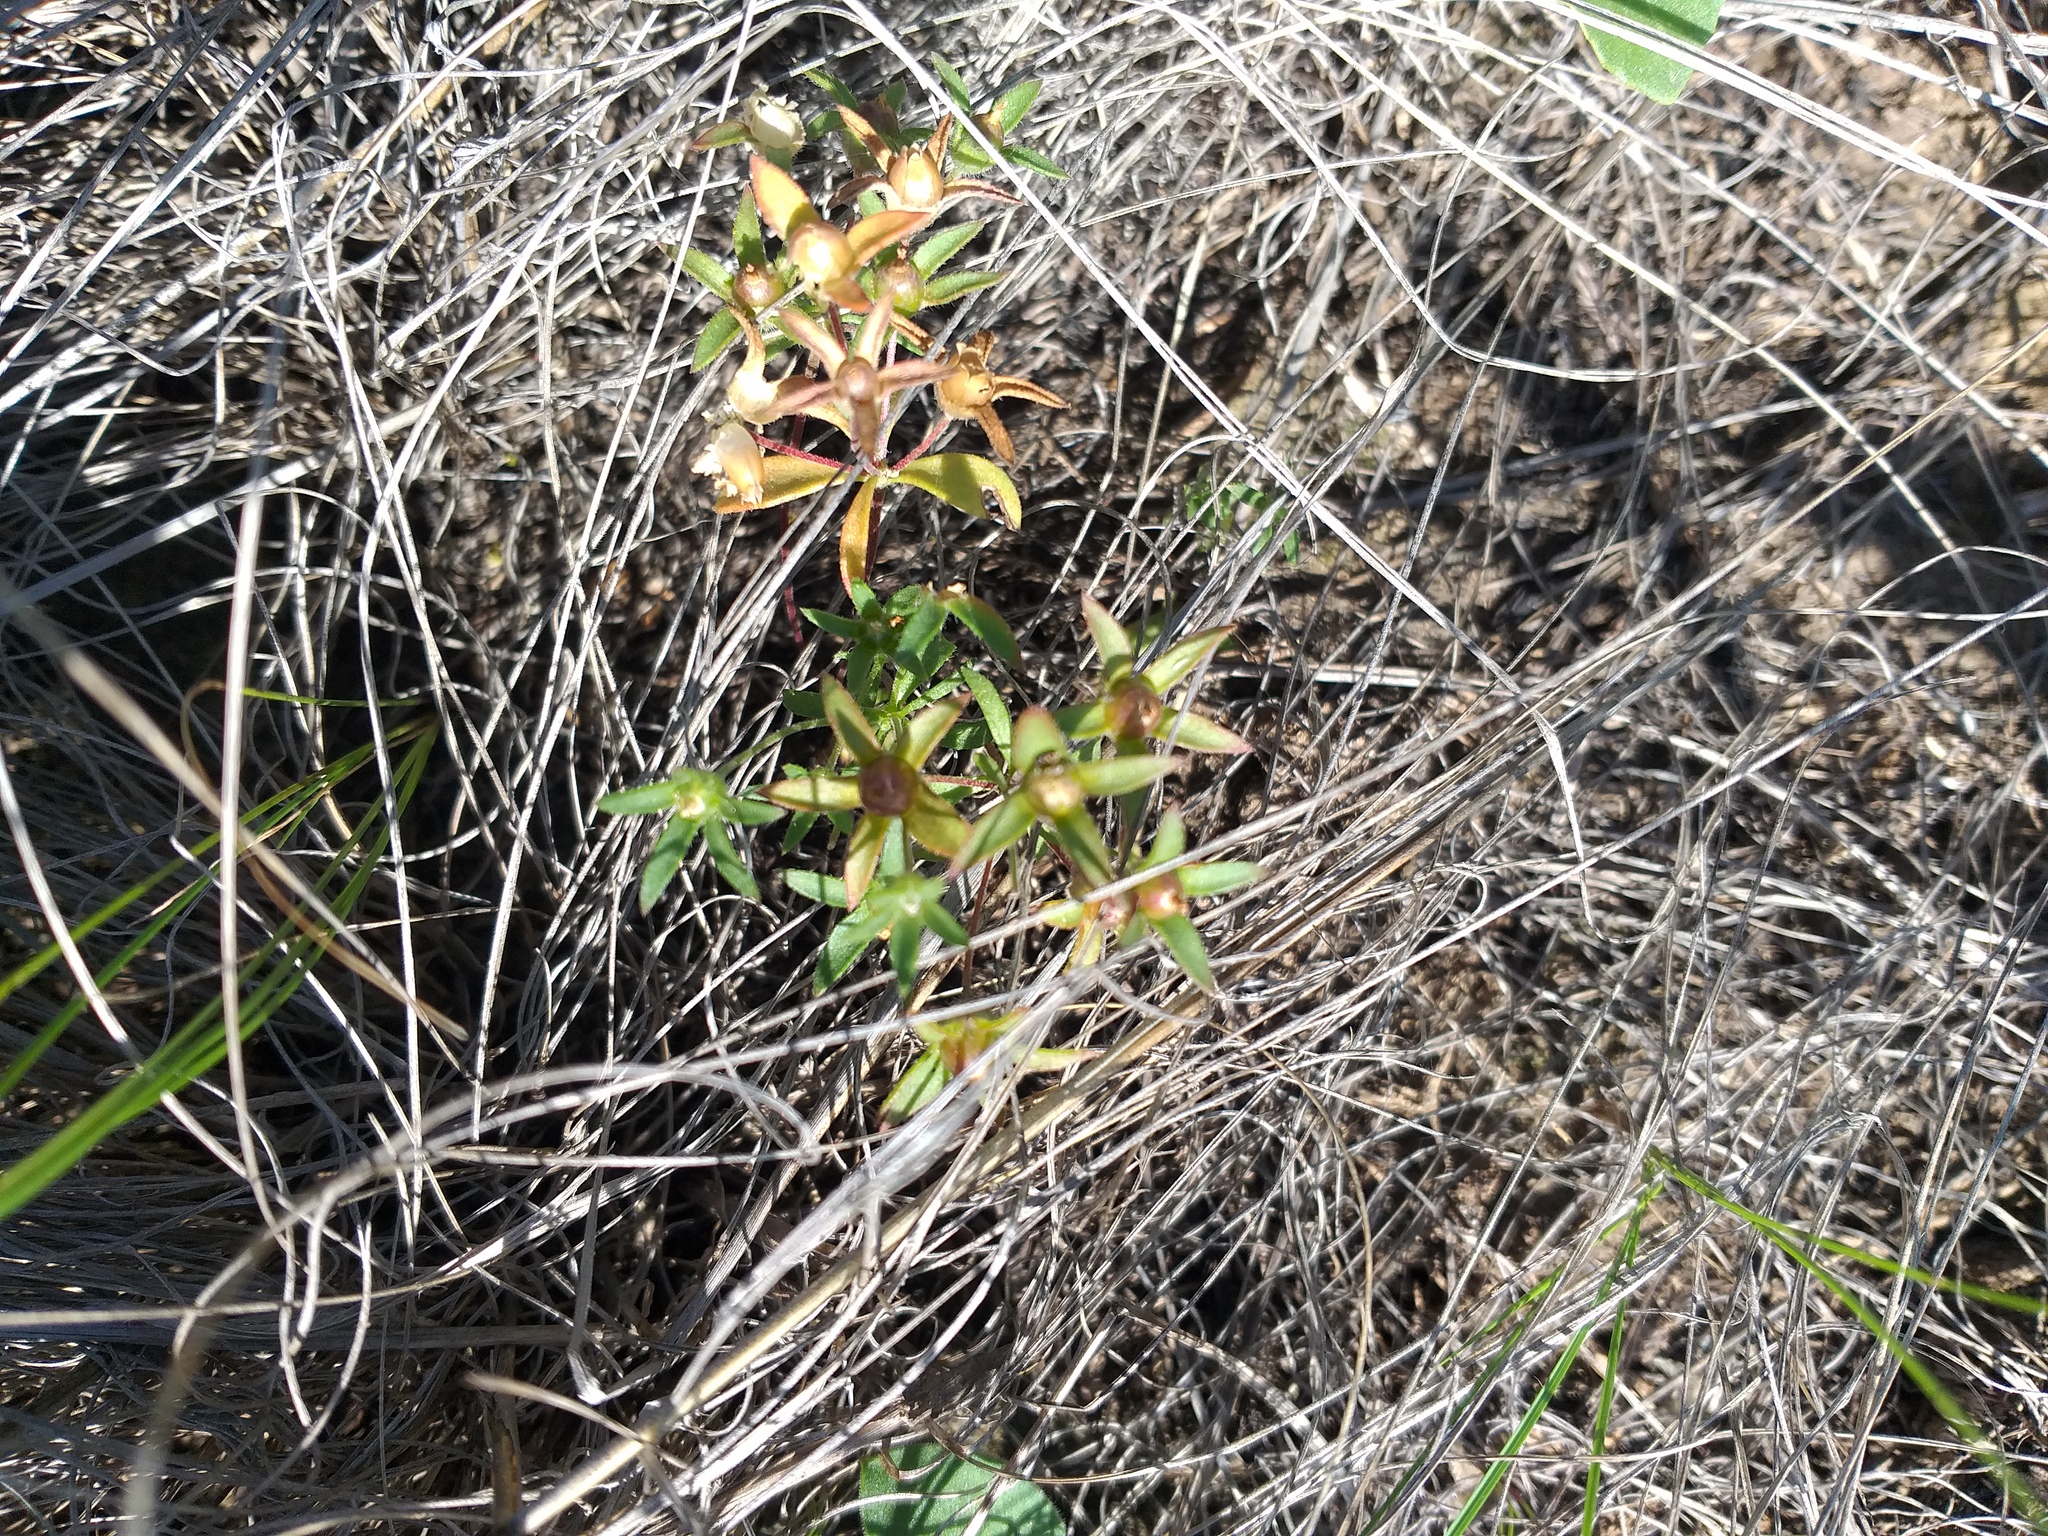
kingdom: Plantae
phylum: Tracheophyta
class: Magnoliopsida
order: Ericales
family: Primulaceae
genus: Androsace
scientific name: Androsace maxima
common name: Annual androsace
